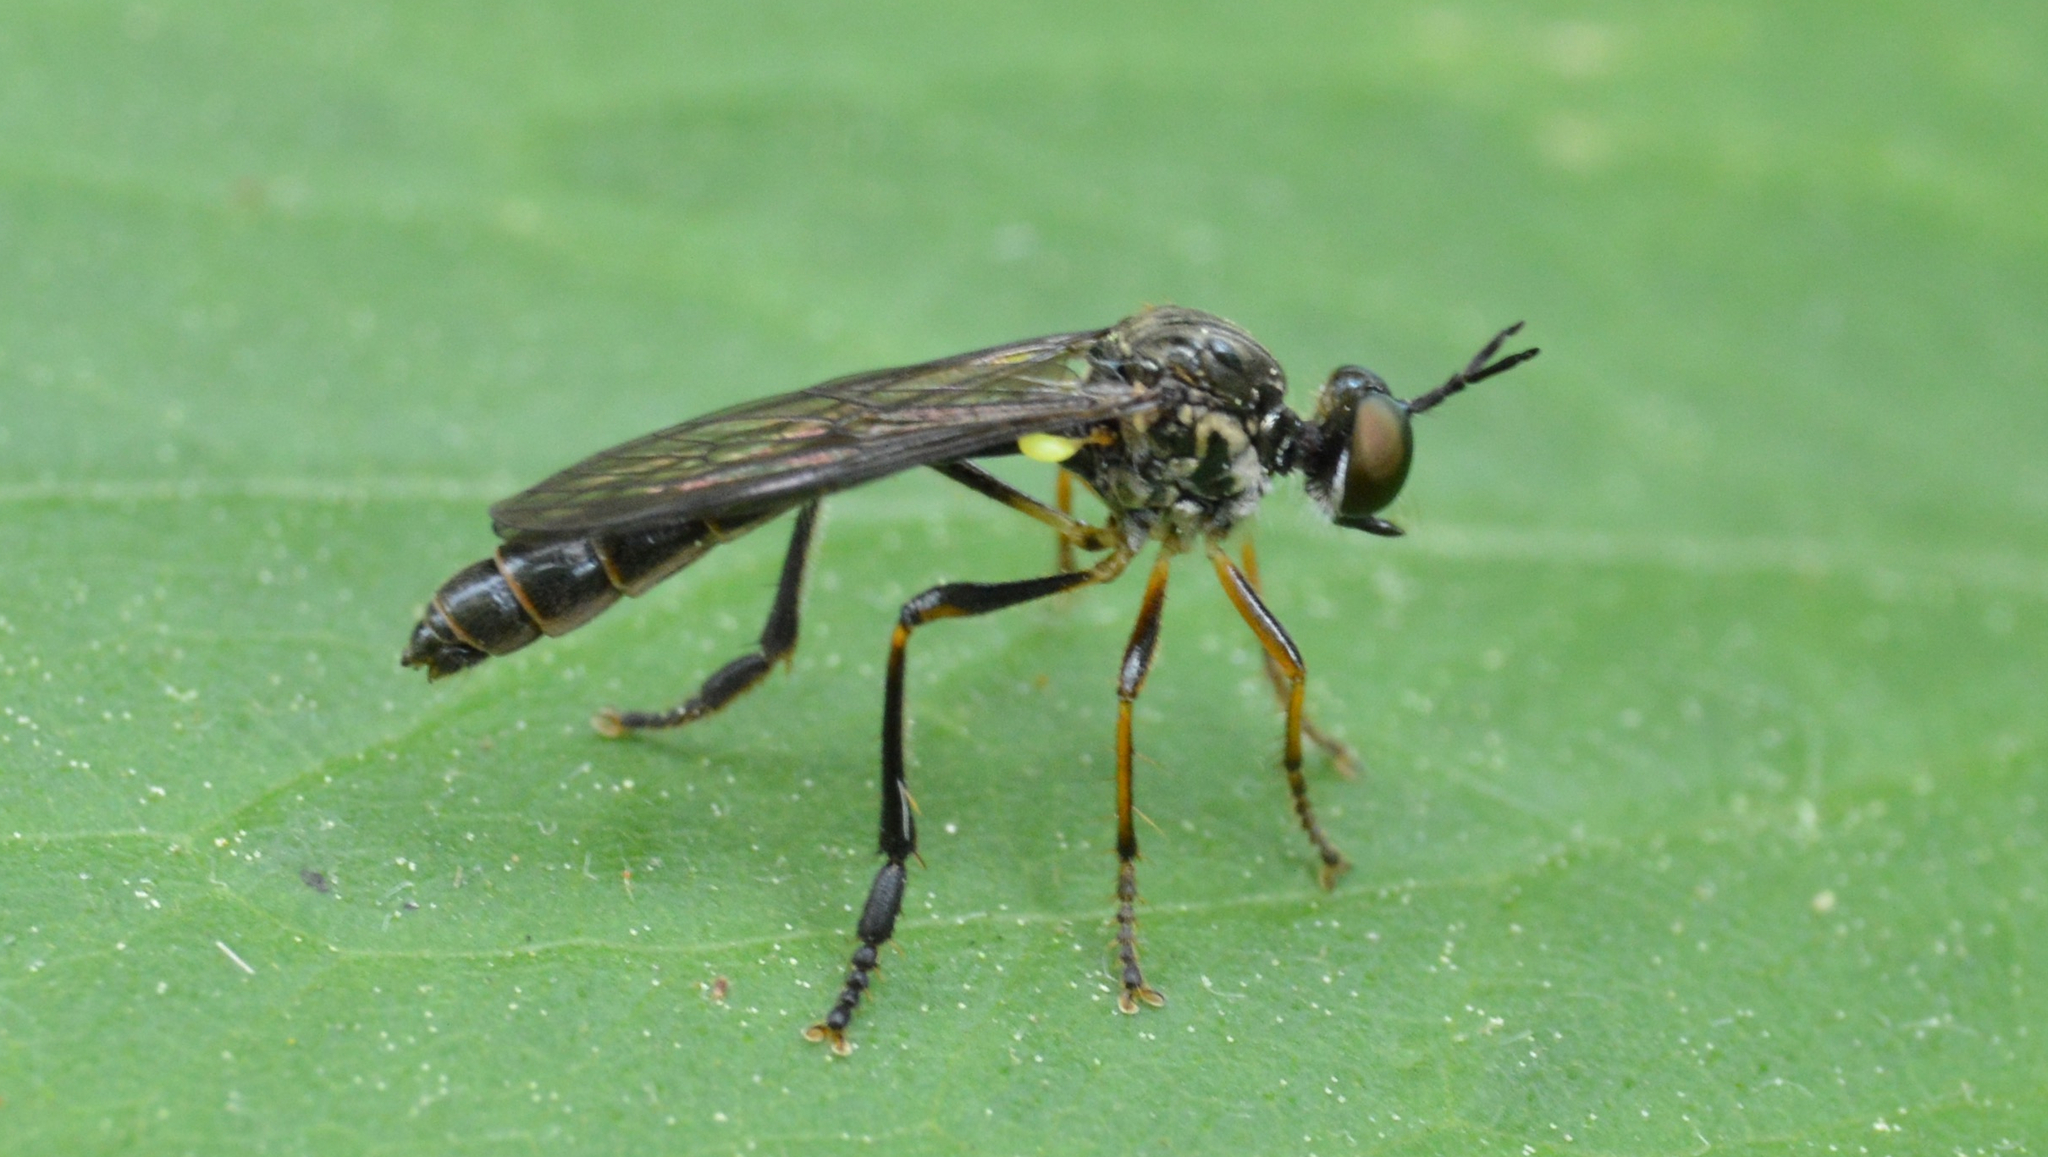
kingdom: Animalia
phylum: Arthropoda
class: Insecta
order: Diptera
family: Asilidae
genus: Dioctria
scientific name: Dioctria hyalipennis
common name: Stripe-legged robberfly
